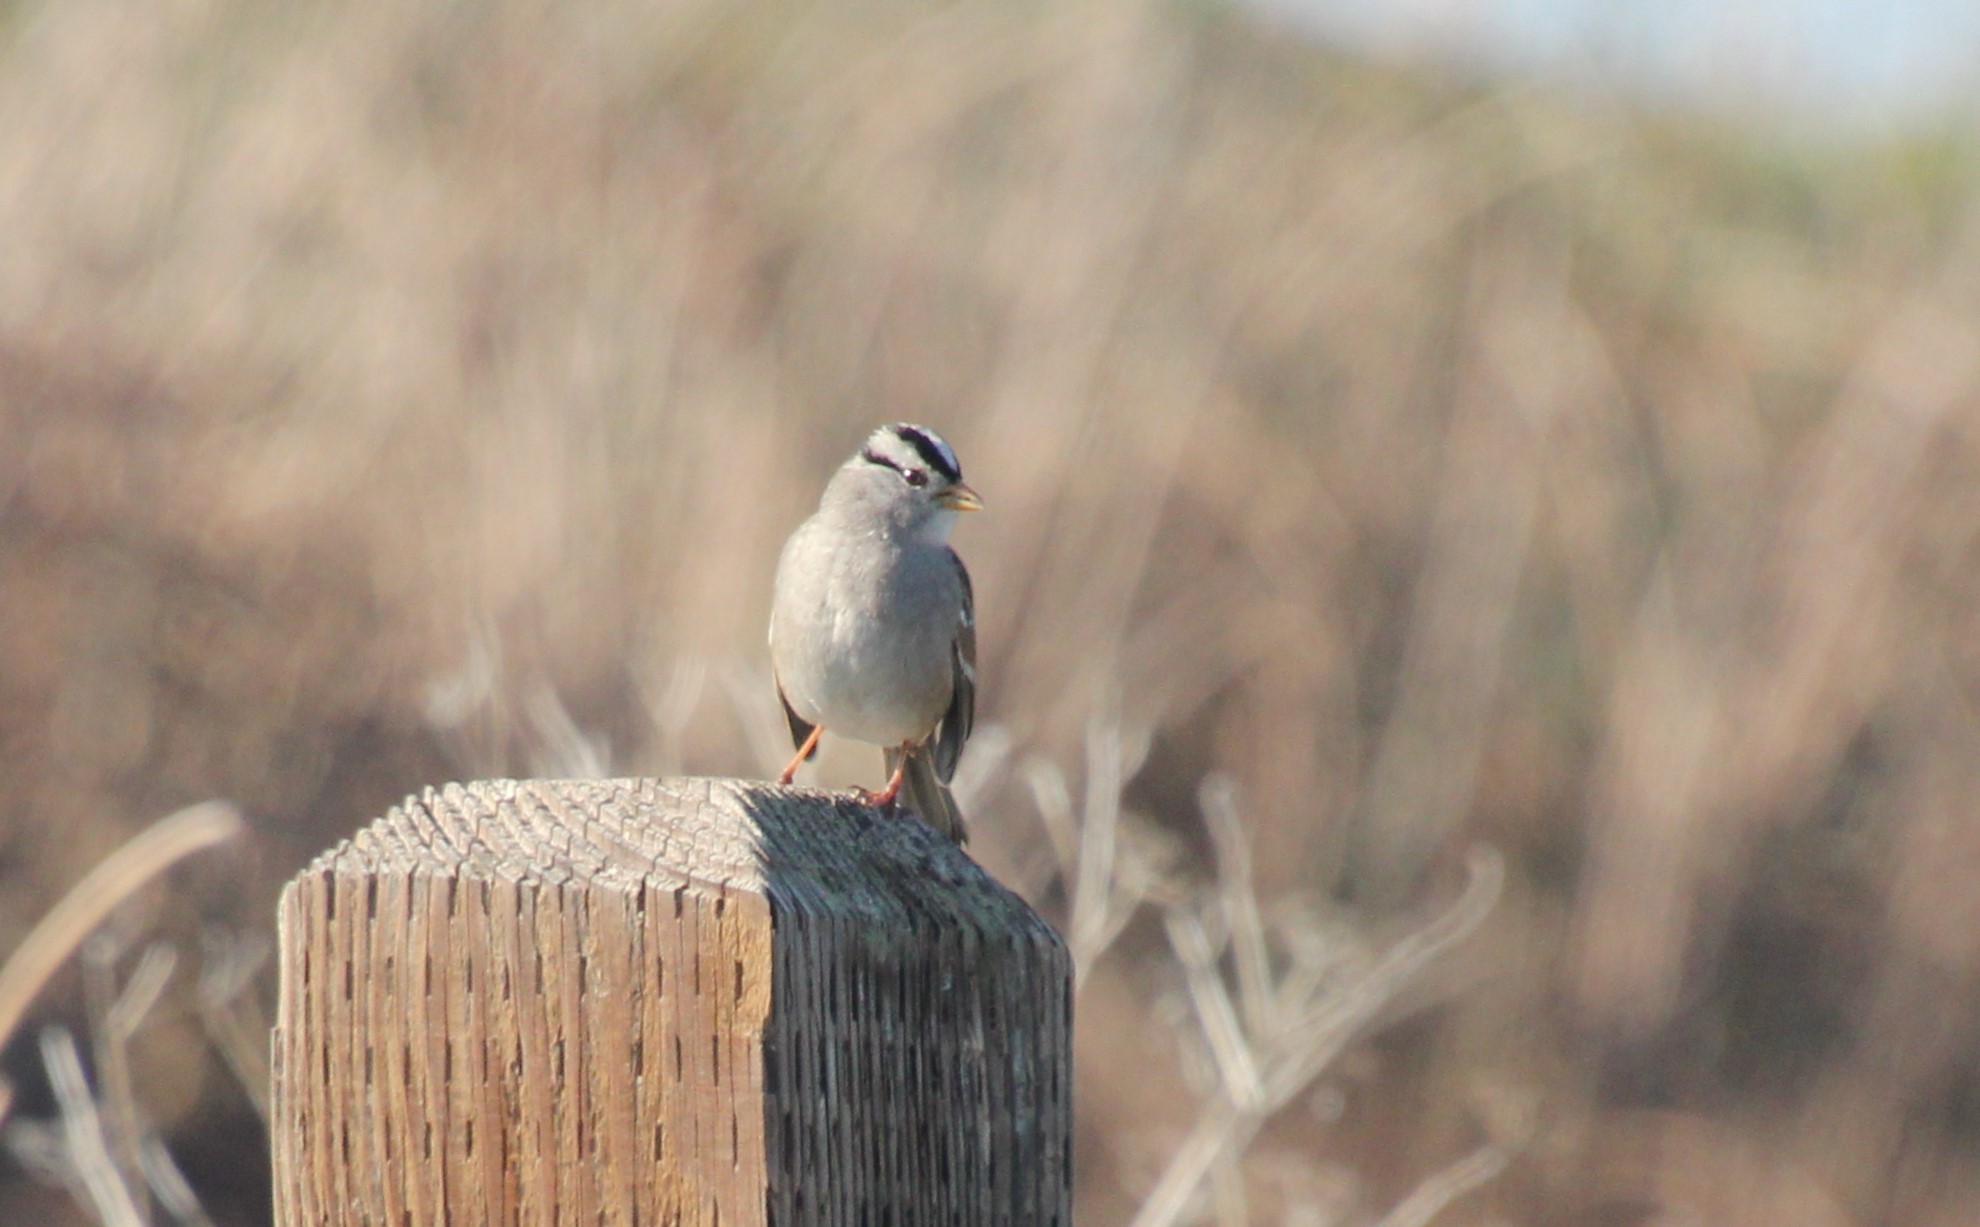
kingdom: Animalia
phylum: Chordata
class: Aves
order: Passeriformes
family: Passerellidae
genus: Zonotrichia
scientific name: Zonotrichia leucophrys
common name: White-crowned sparrow
